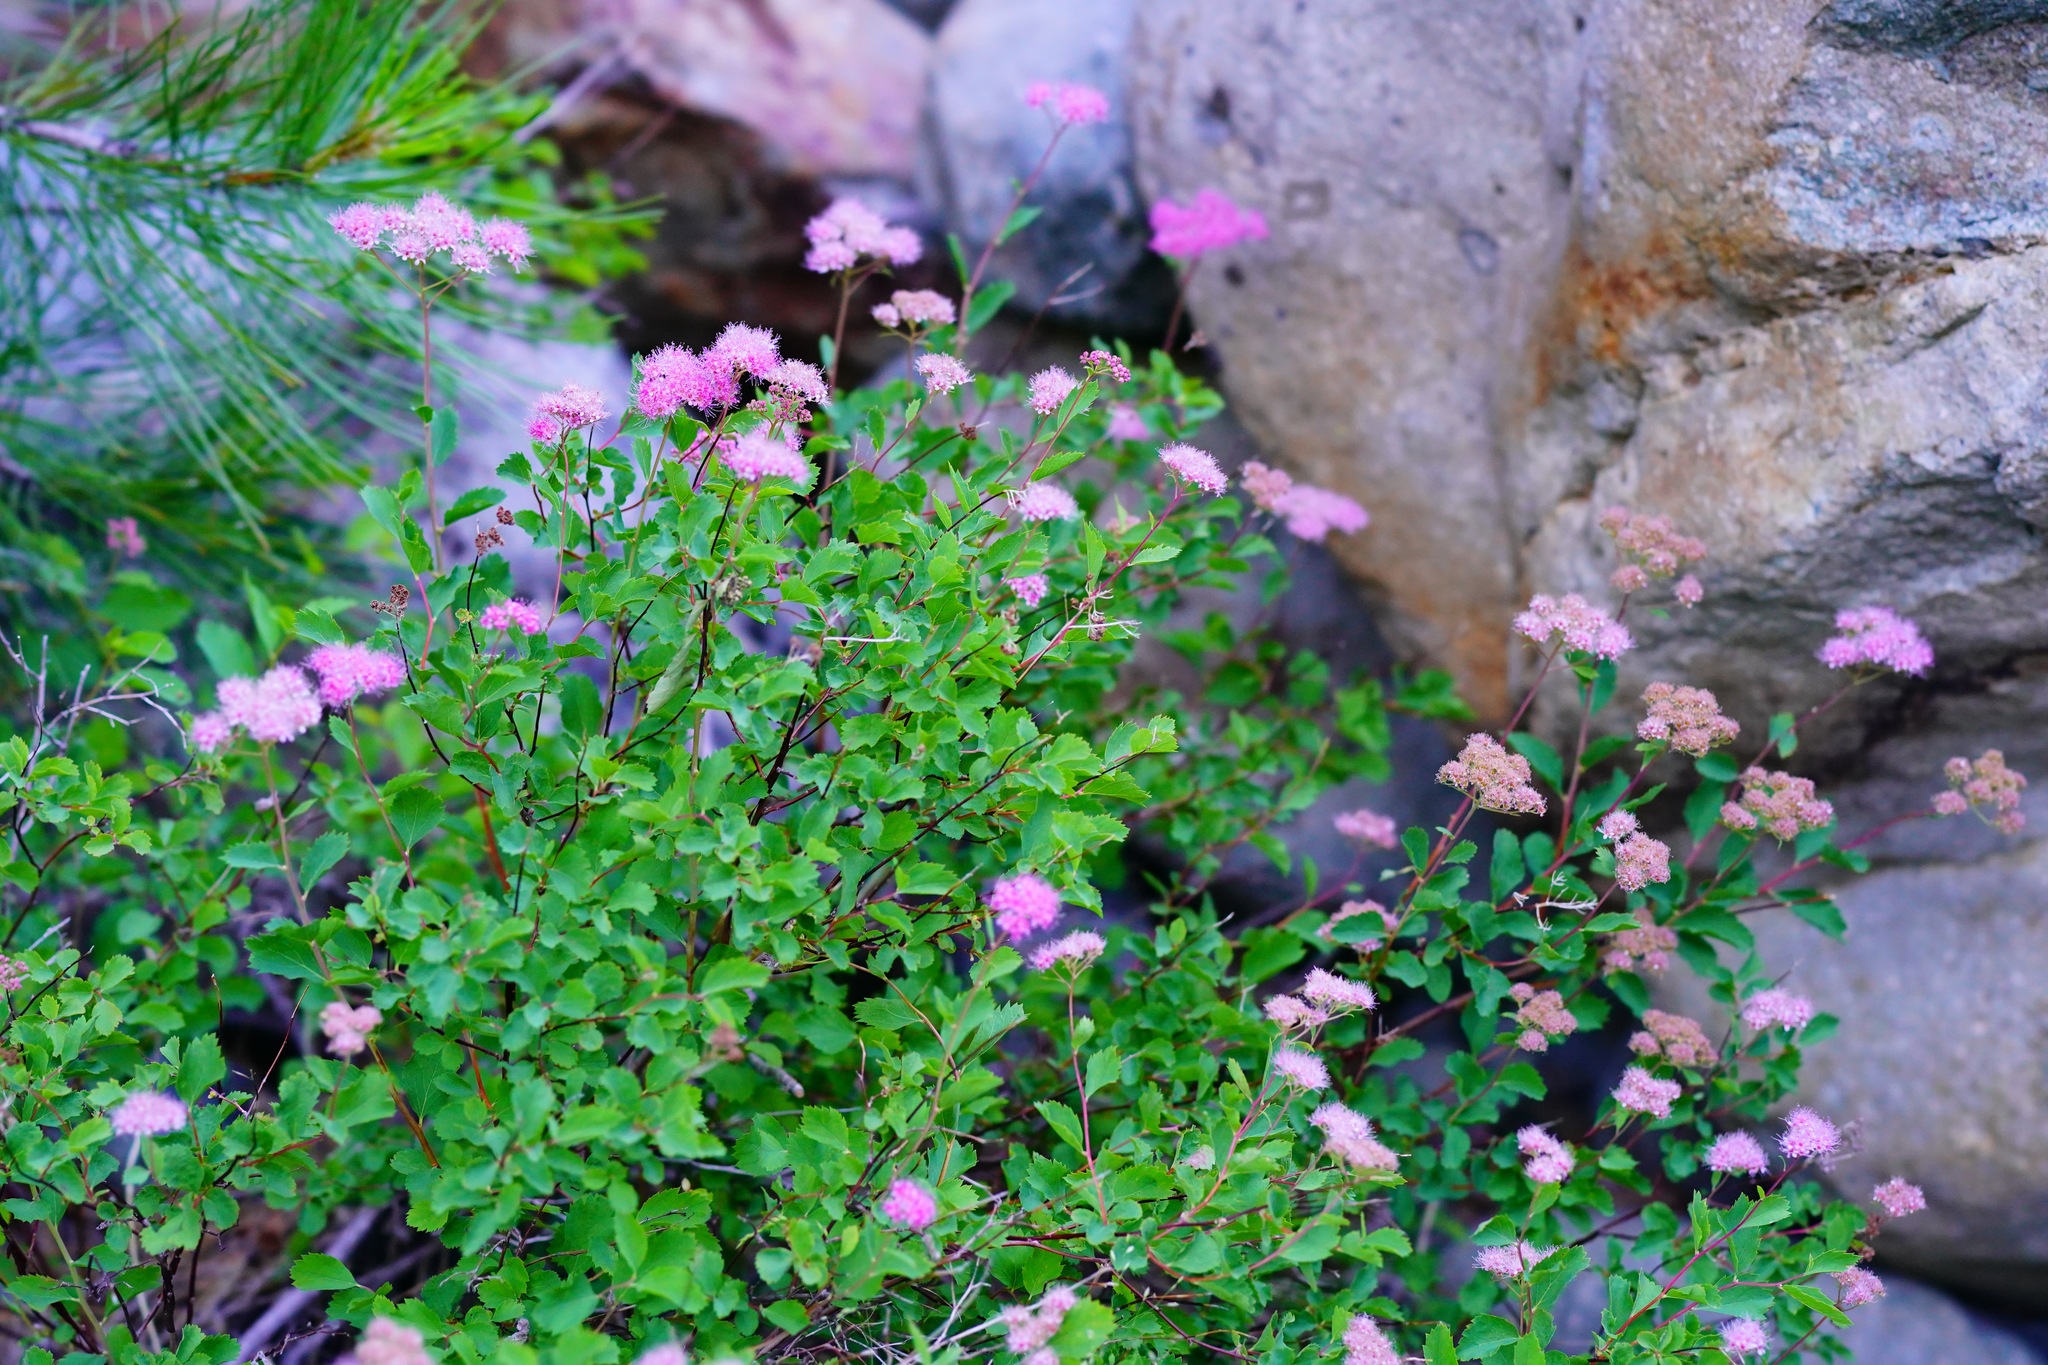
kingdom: Plantae
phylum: Tracheophyta
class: Magnoliopsida
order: Rosales
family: Rosaceae
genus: Spiraea
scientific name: Spiraea splendens
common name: Subalpine meadowsweet
